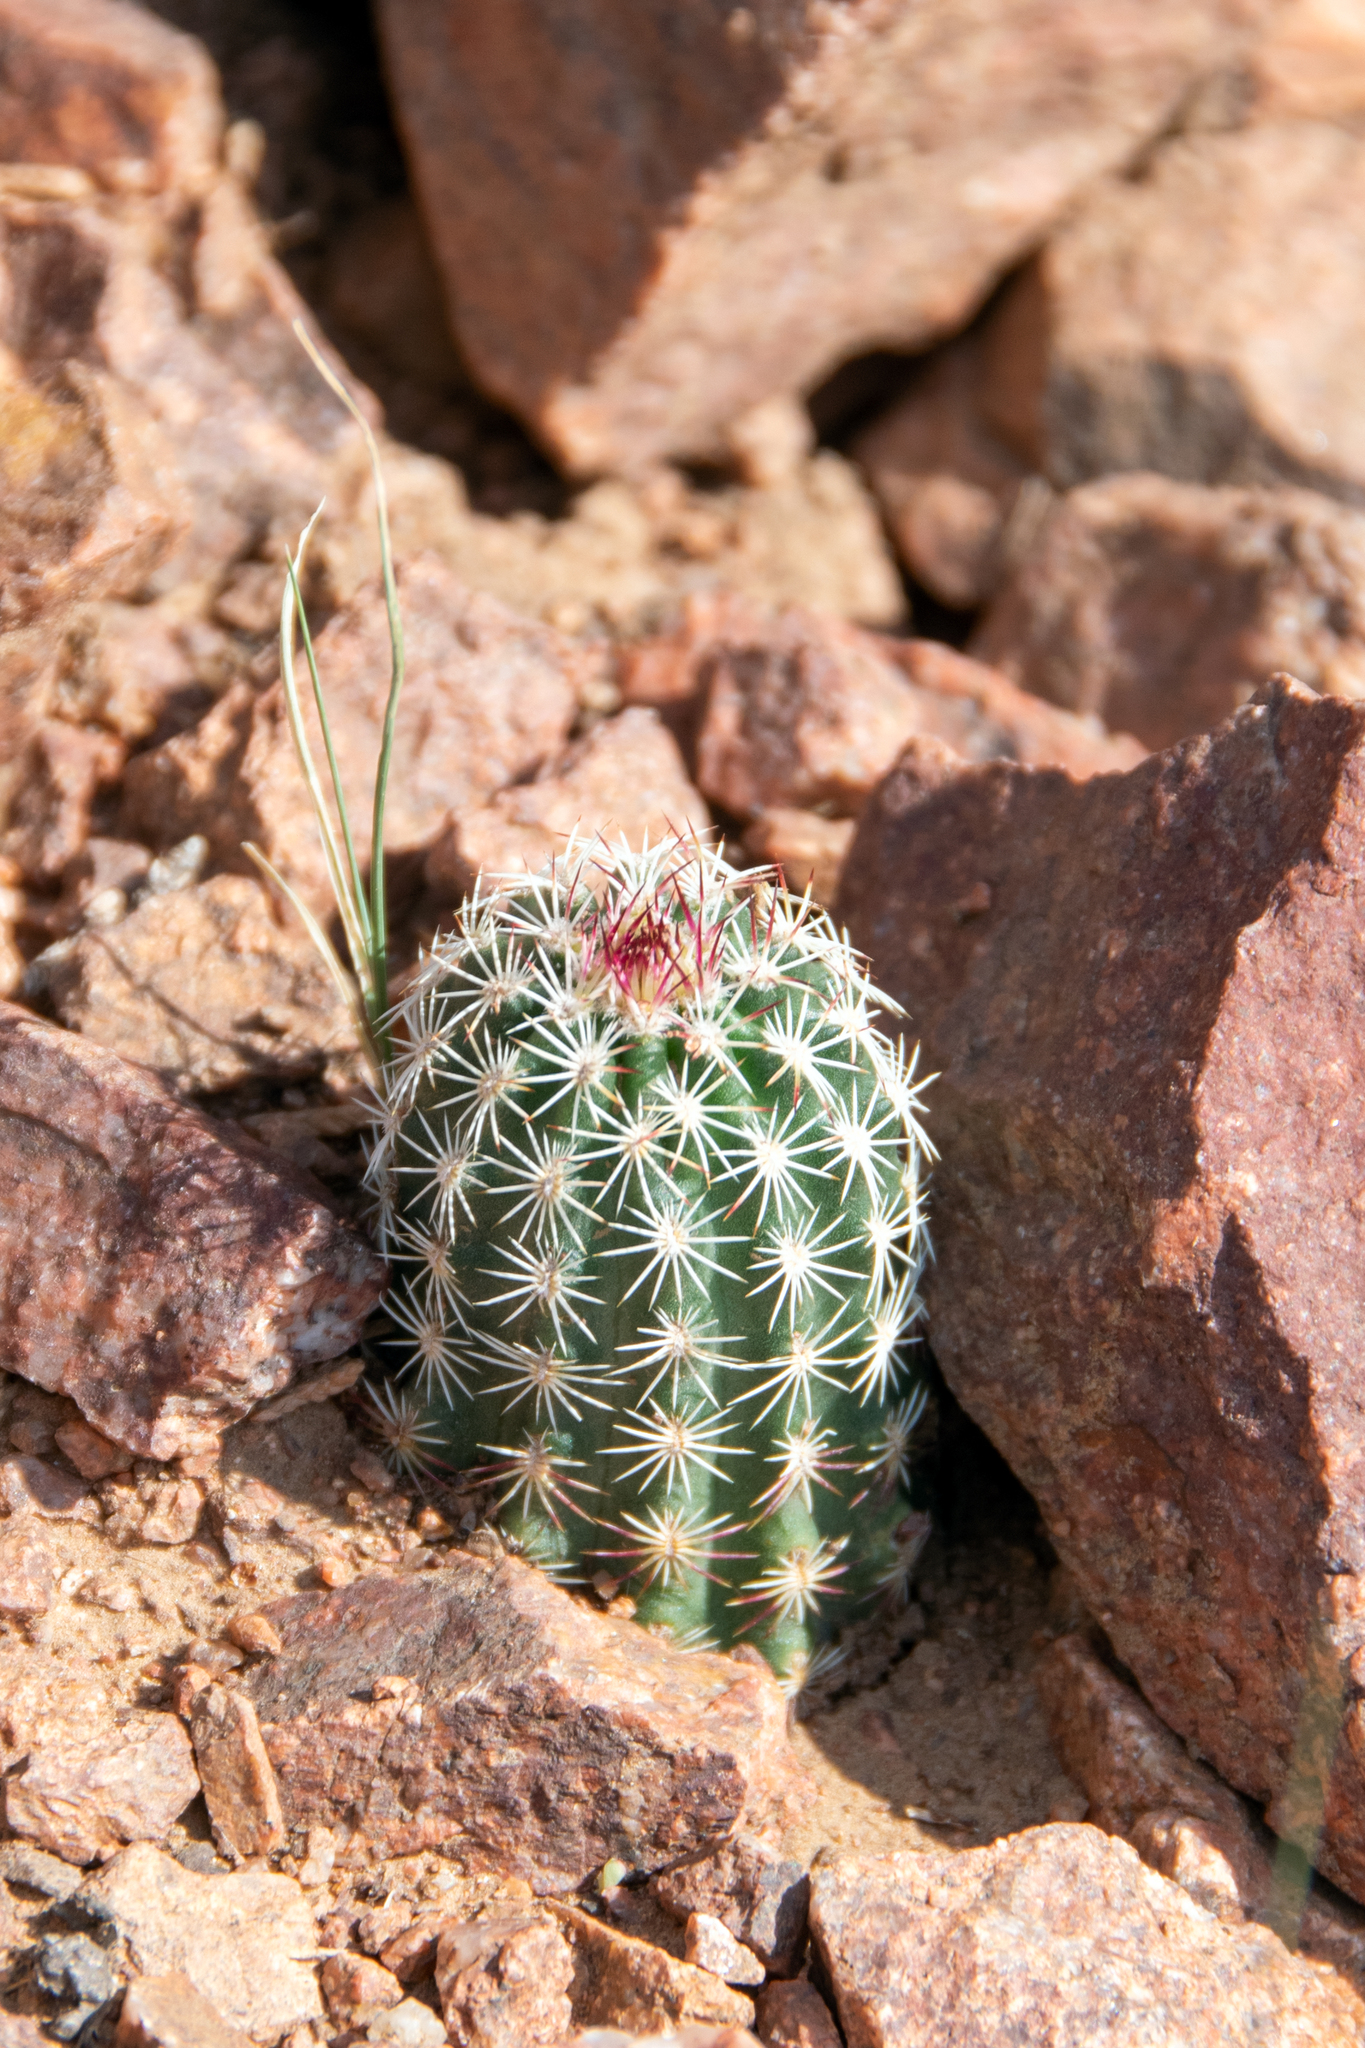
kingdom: Plantae
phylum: Tracheophyta
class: Magnoliopsida
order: Caryophyllales
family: Cactaceae
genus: Echinocereus
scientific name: Echinocereus viridiflorus
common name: Nylon hedgehog cactus
